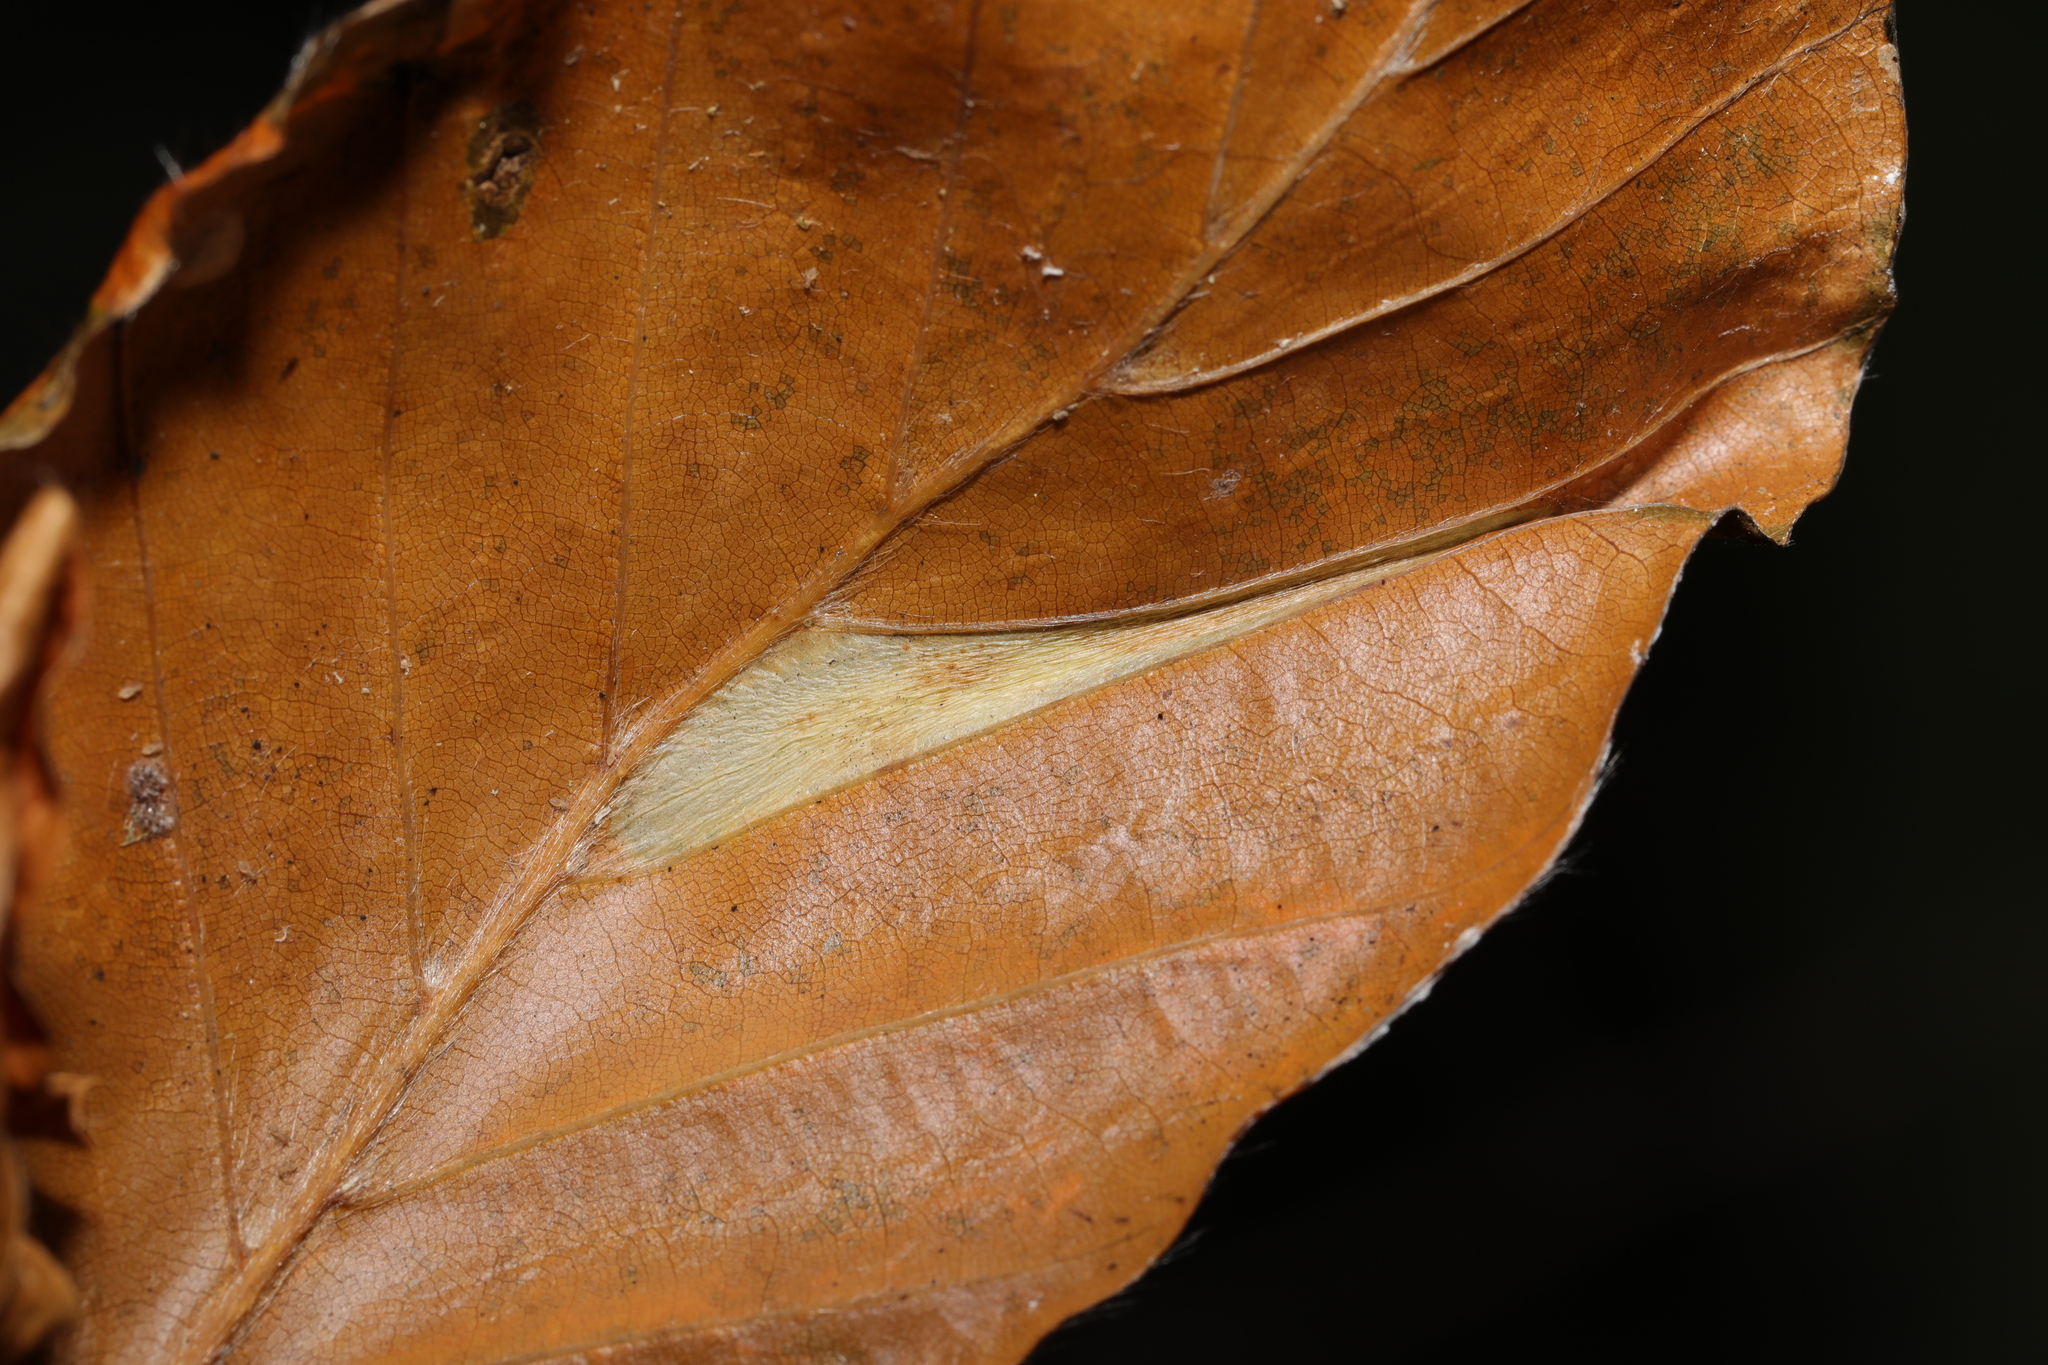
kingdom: Animalia
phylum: Arthropoda
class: Insecta
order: Lepidoptera
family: Gracillariidae
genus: Phyllonorycter
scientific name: Phyllonorycter maestingella
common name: Beech midget
